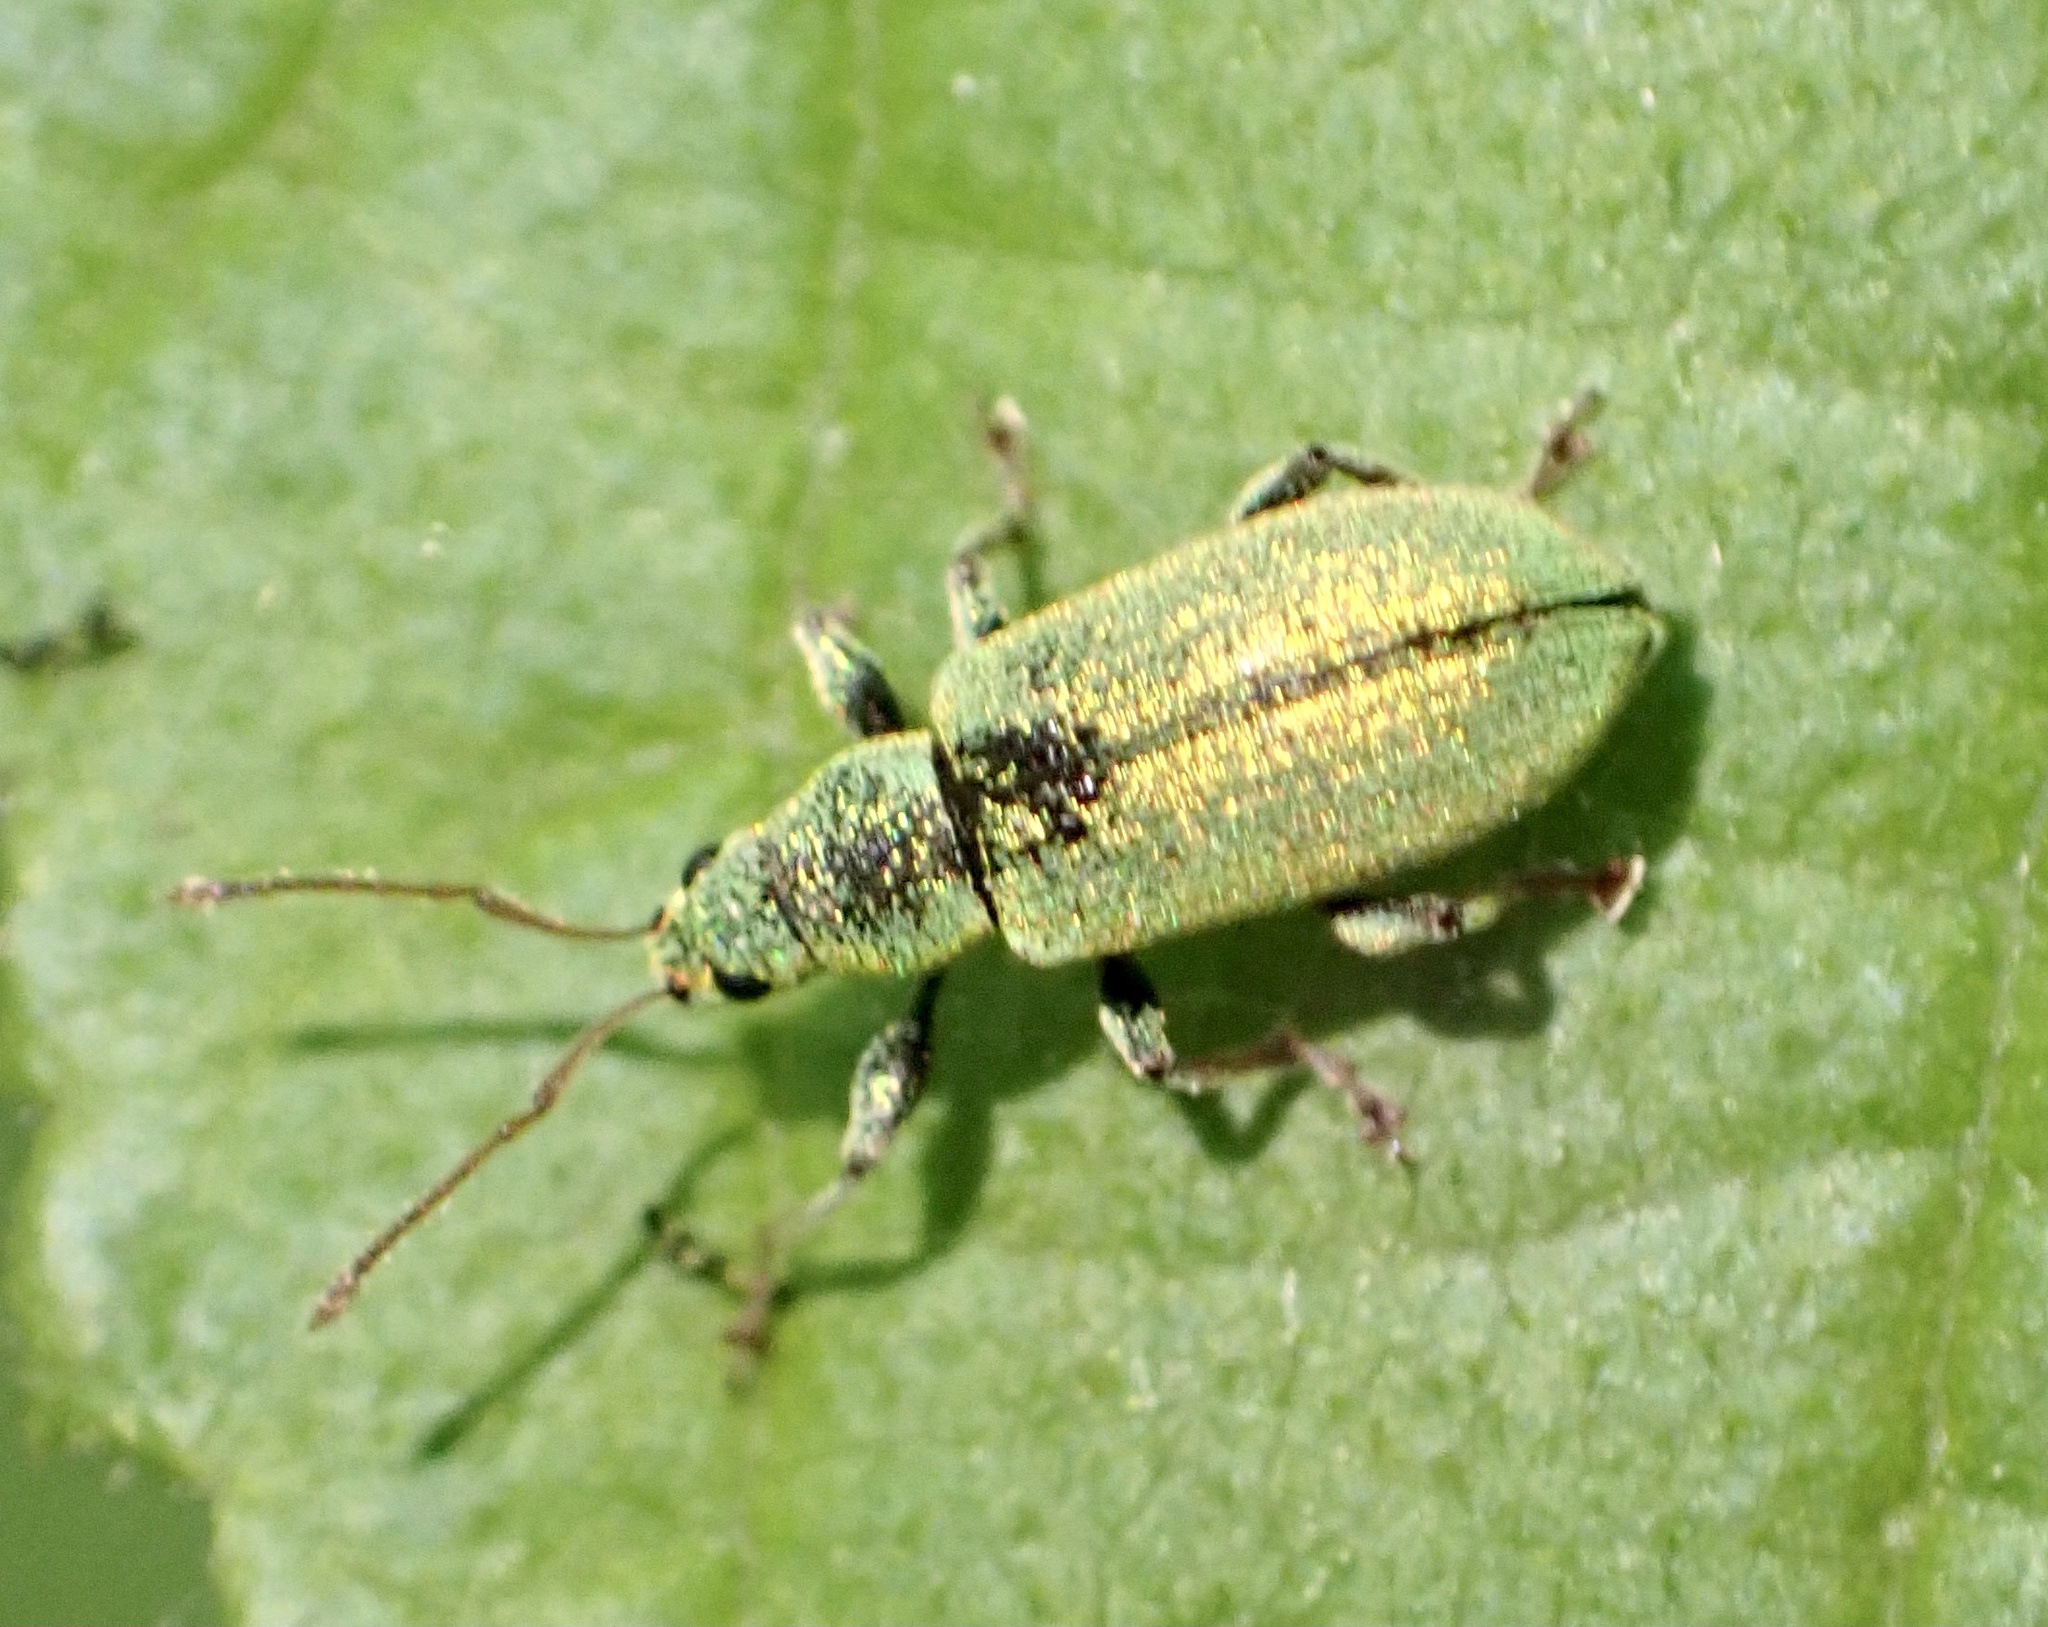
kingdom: Animalia
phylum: Arthropoda
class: Insecta
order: Coleoptera
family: Curculionidae
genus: Phyllobius
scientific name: Phyllobius argentatus
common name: Silver-green leaf weevil
